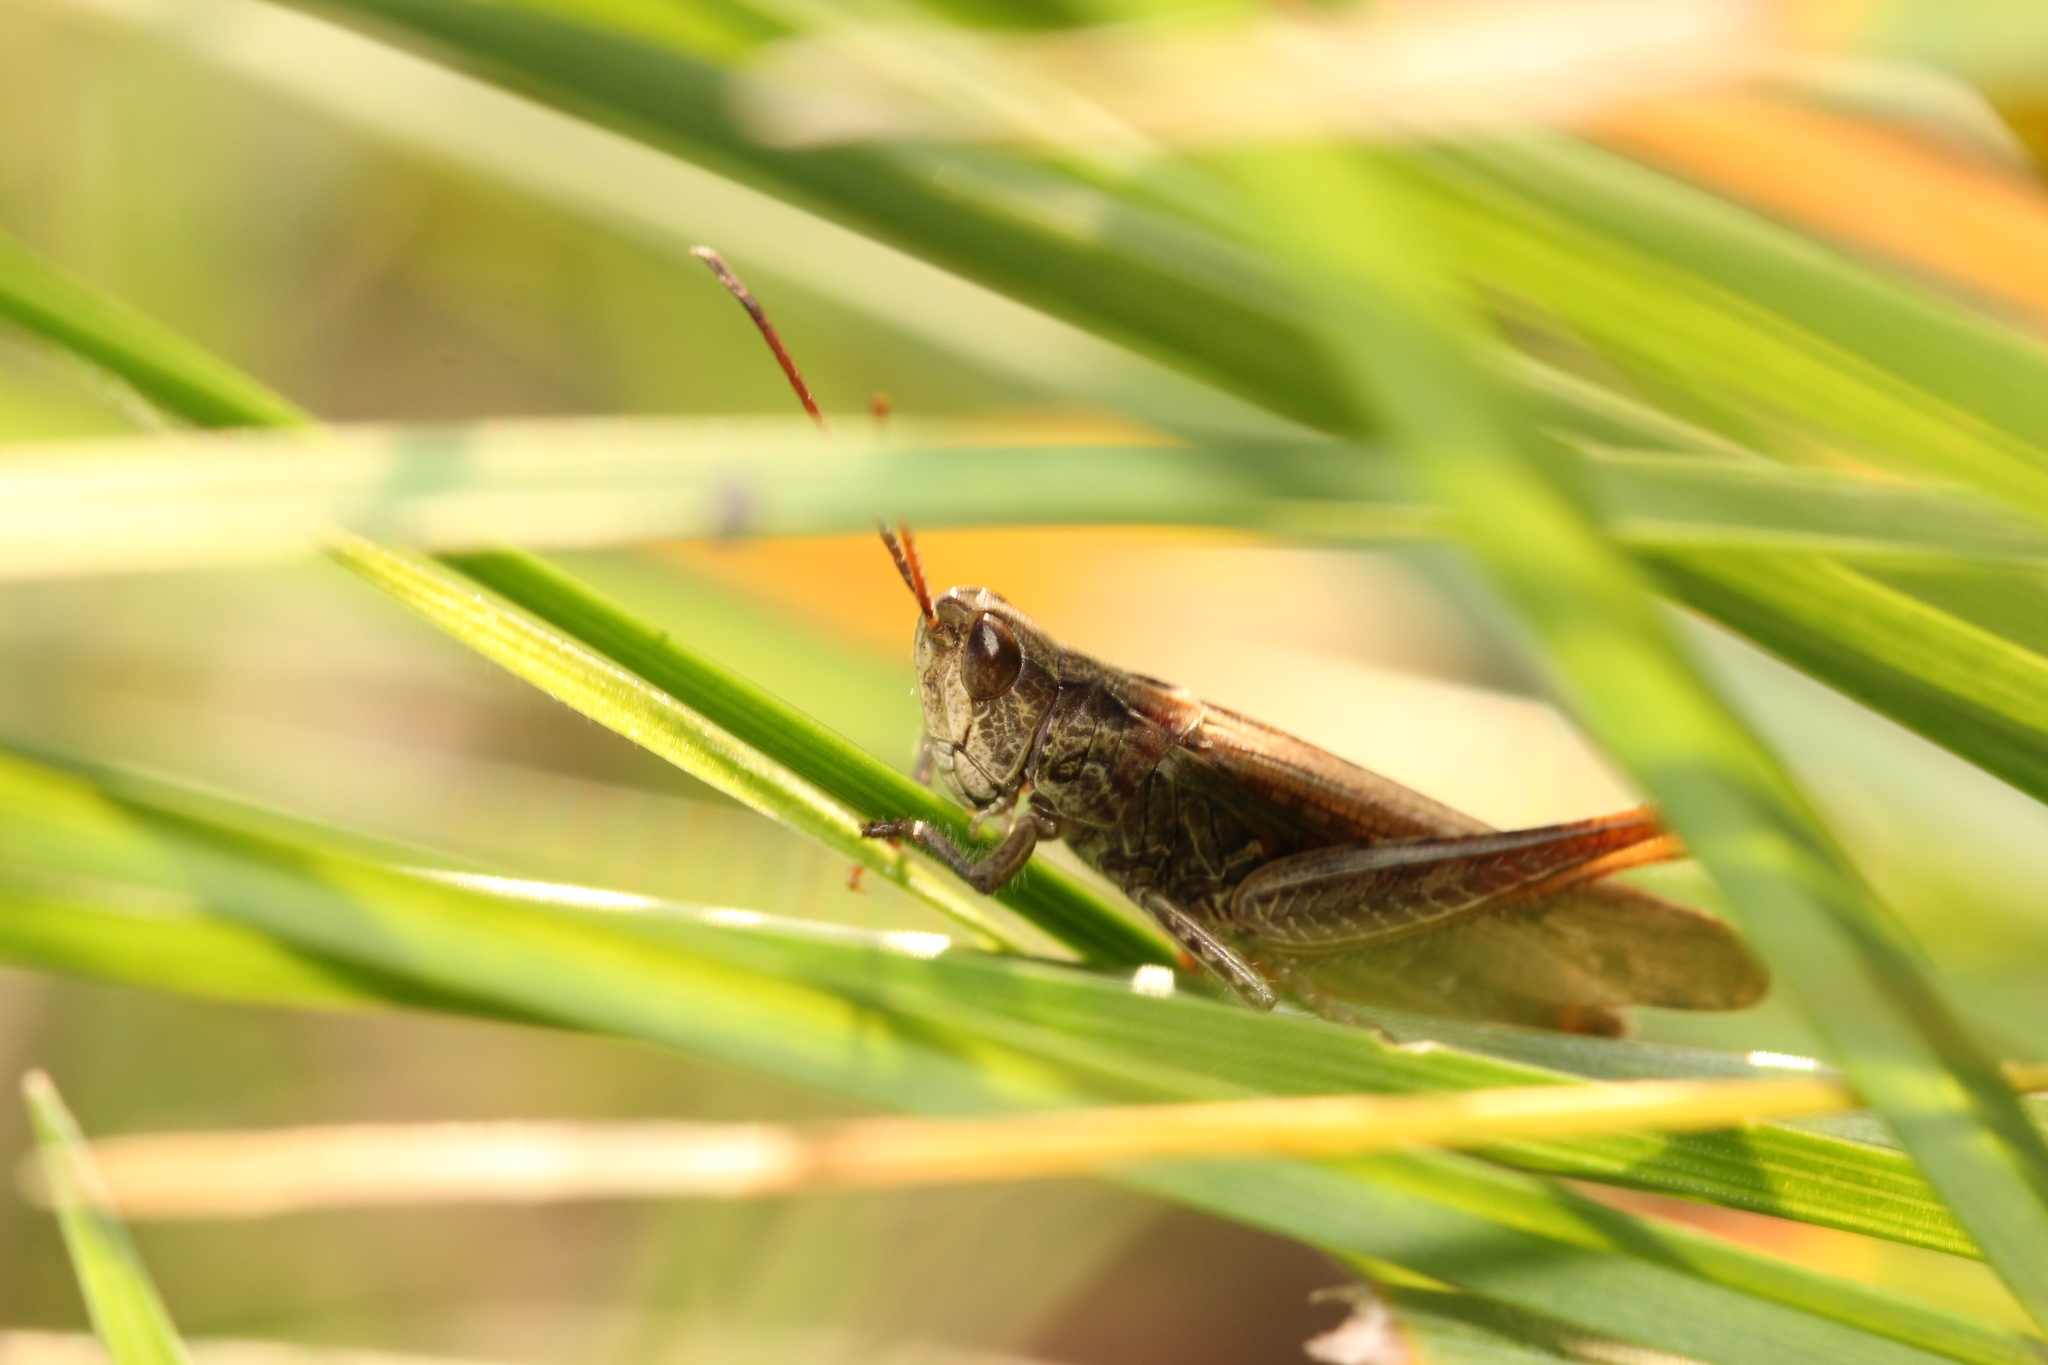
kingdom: Animalia
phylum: Arthropoda
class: Insecta
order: Orthoptera
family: Acrididae
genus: Chorthippus
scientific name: Chorthippus biguttulus
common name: Bow-winged grasshopper
